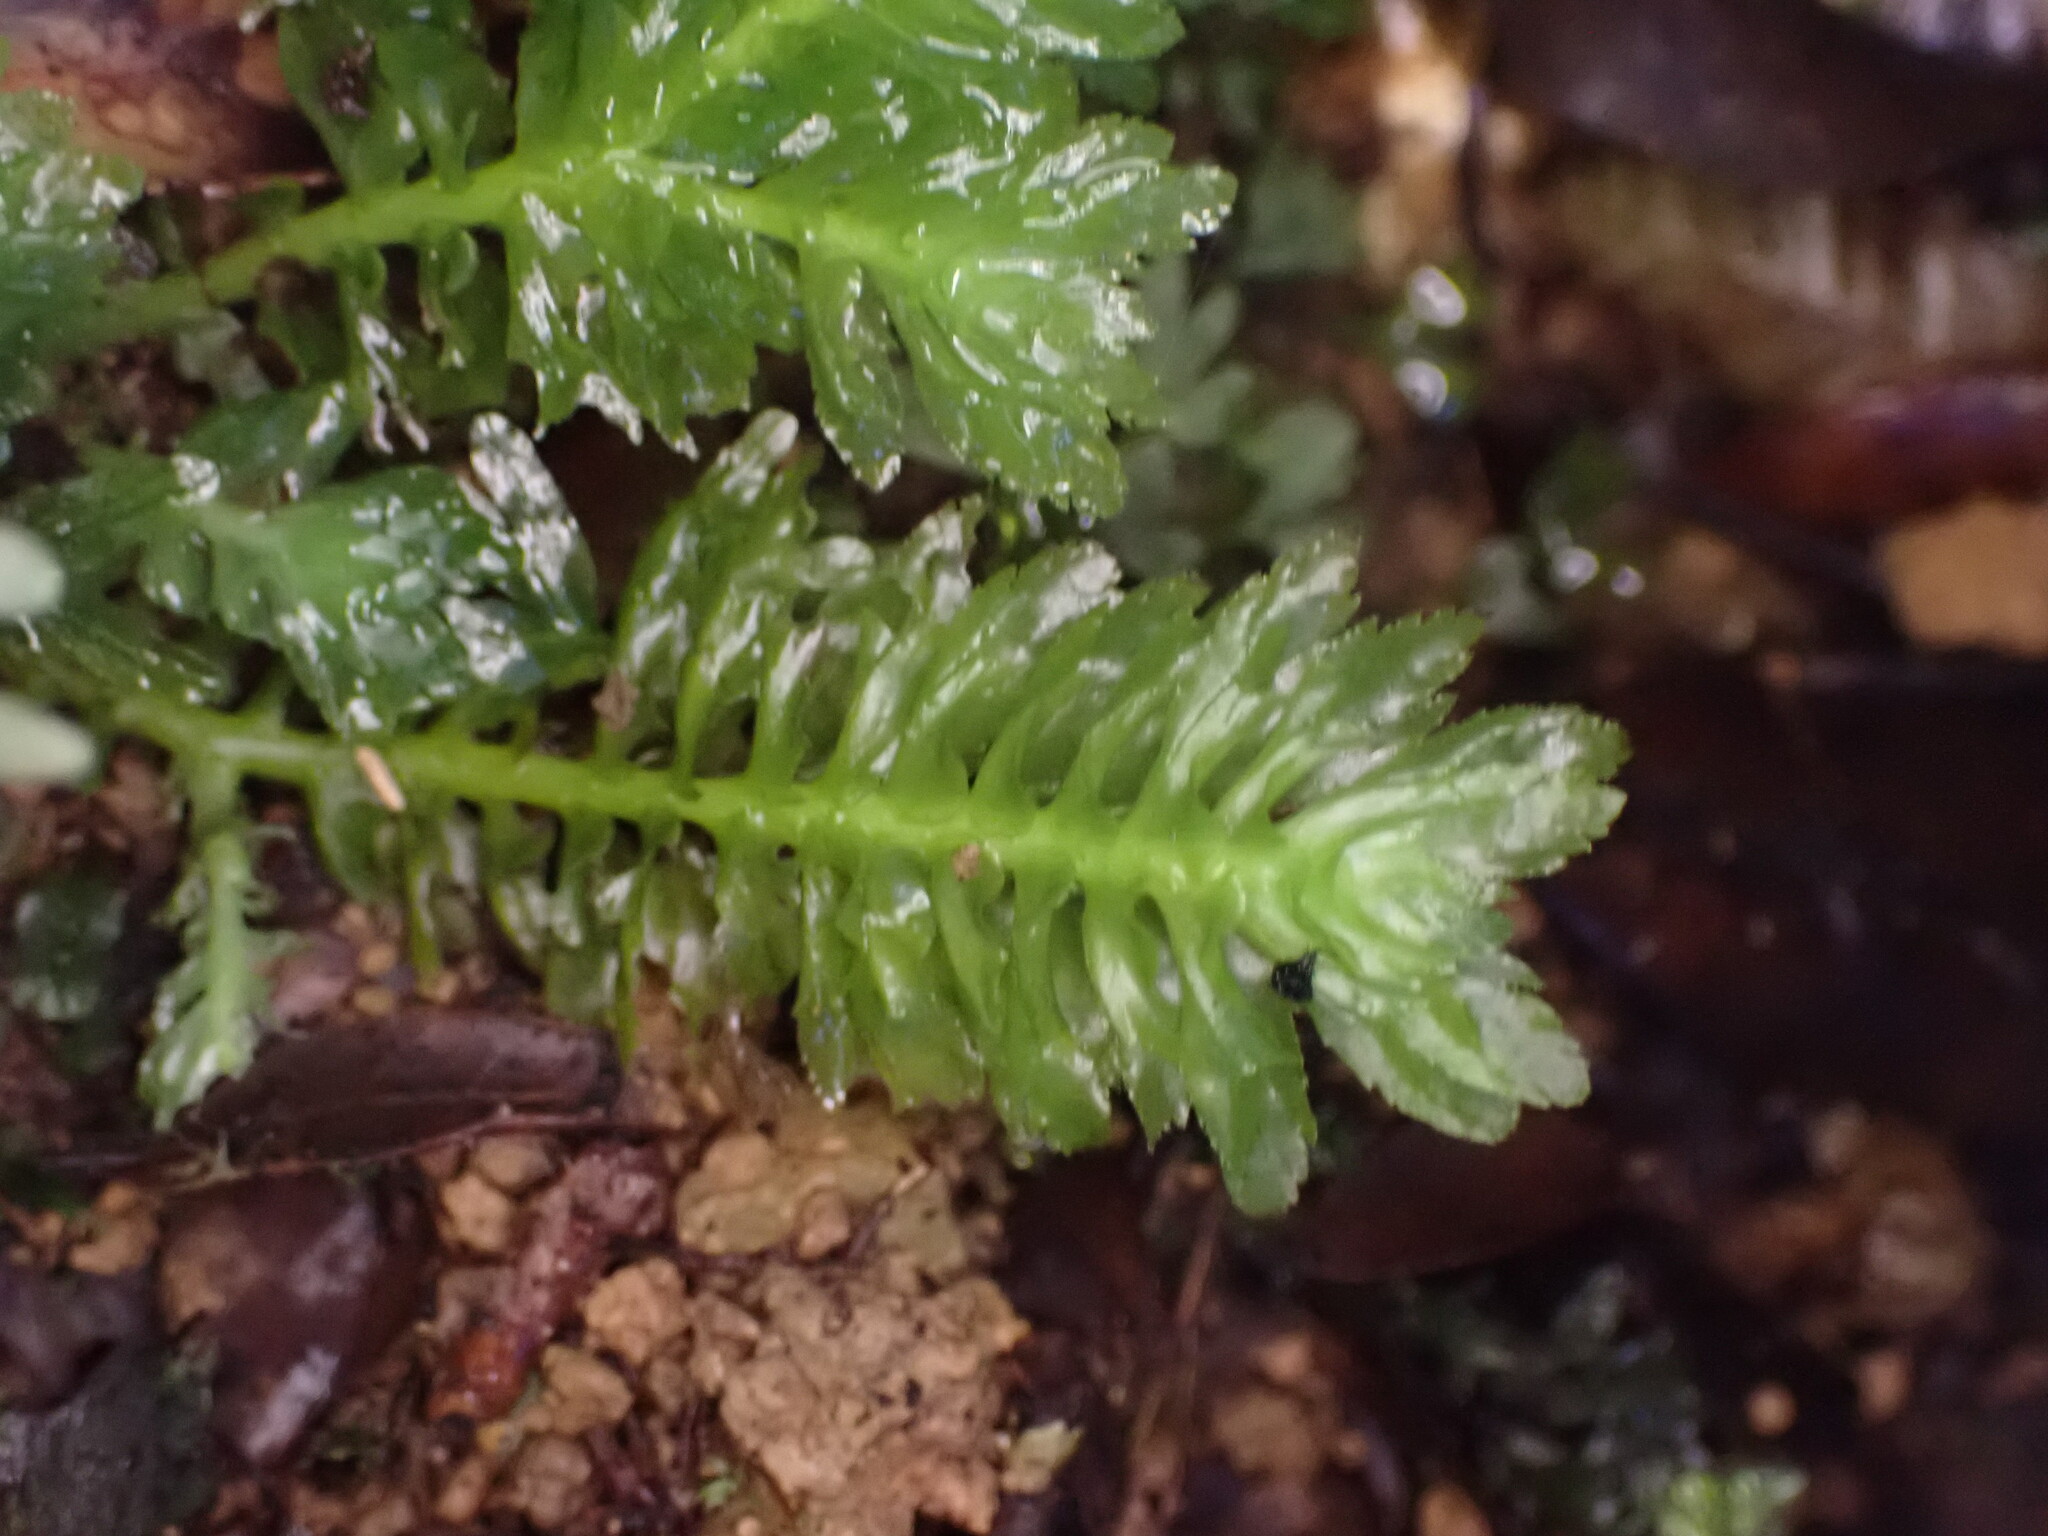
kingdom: Plantae
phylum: Marchantiophyta
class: Jungermanniopsida
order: Jungermanniales
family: Schistochilaceae
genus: Schistochila
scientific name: Schistochila appendiculata
